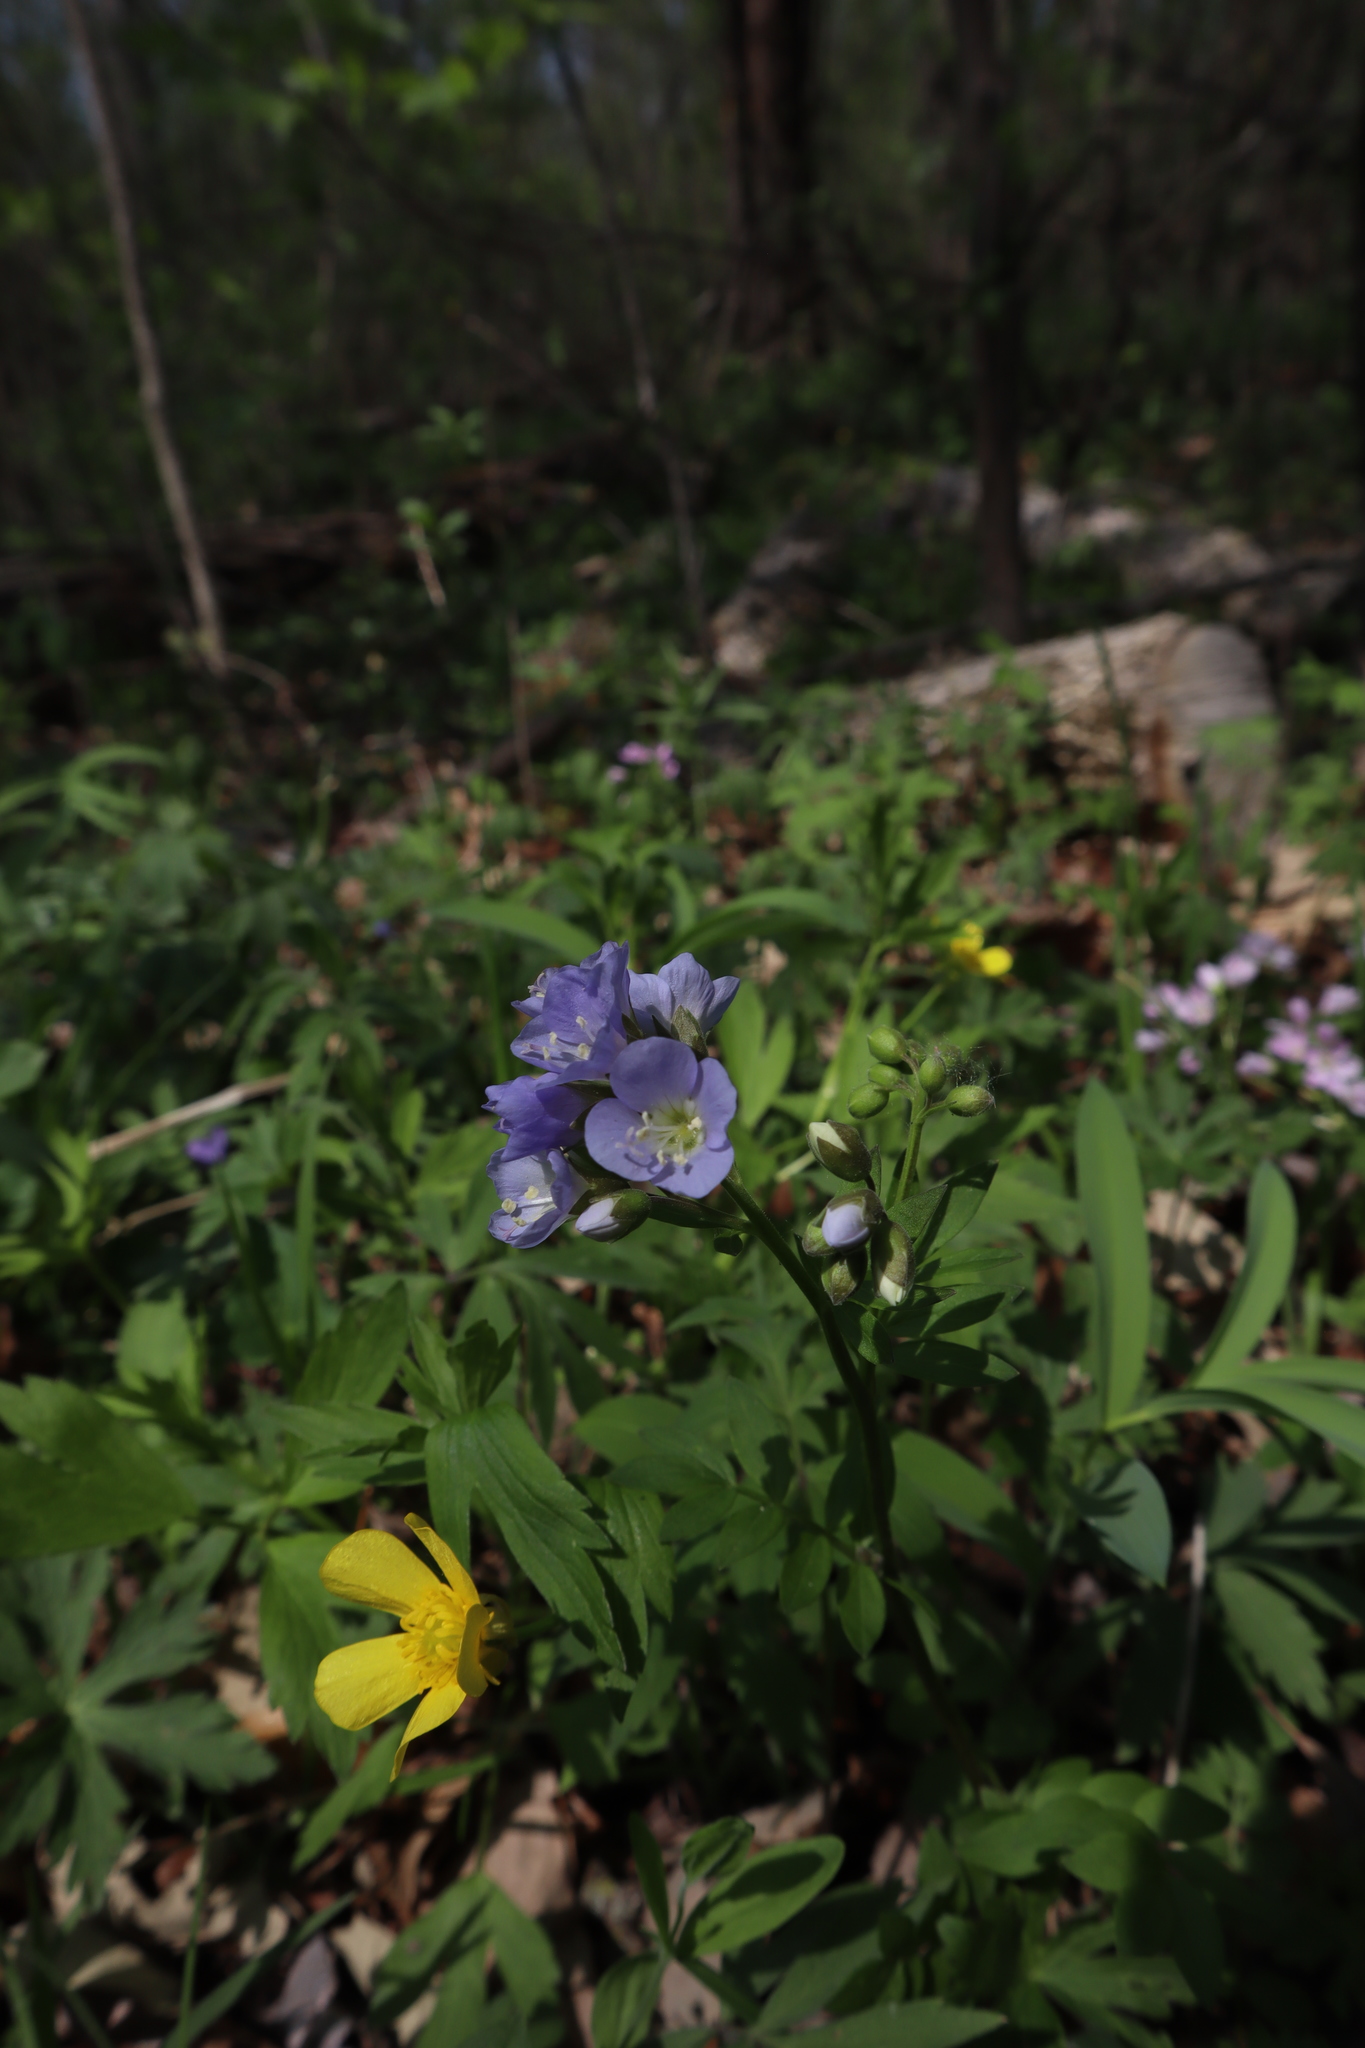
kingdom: Plantae
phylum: Tracheophyta
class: Magnoliopsida
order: Ericales
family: Polemoniaceae
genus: Polemonium
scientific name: Polemonium reptans
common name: Creeping jacob's-ladder
